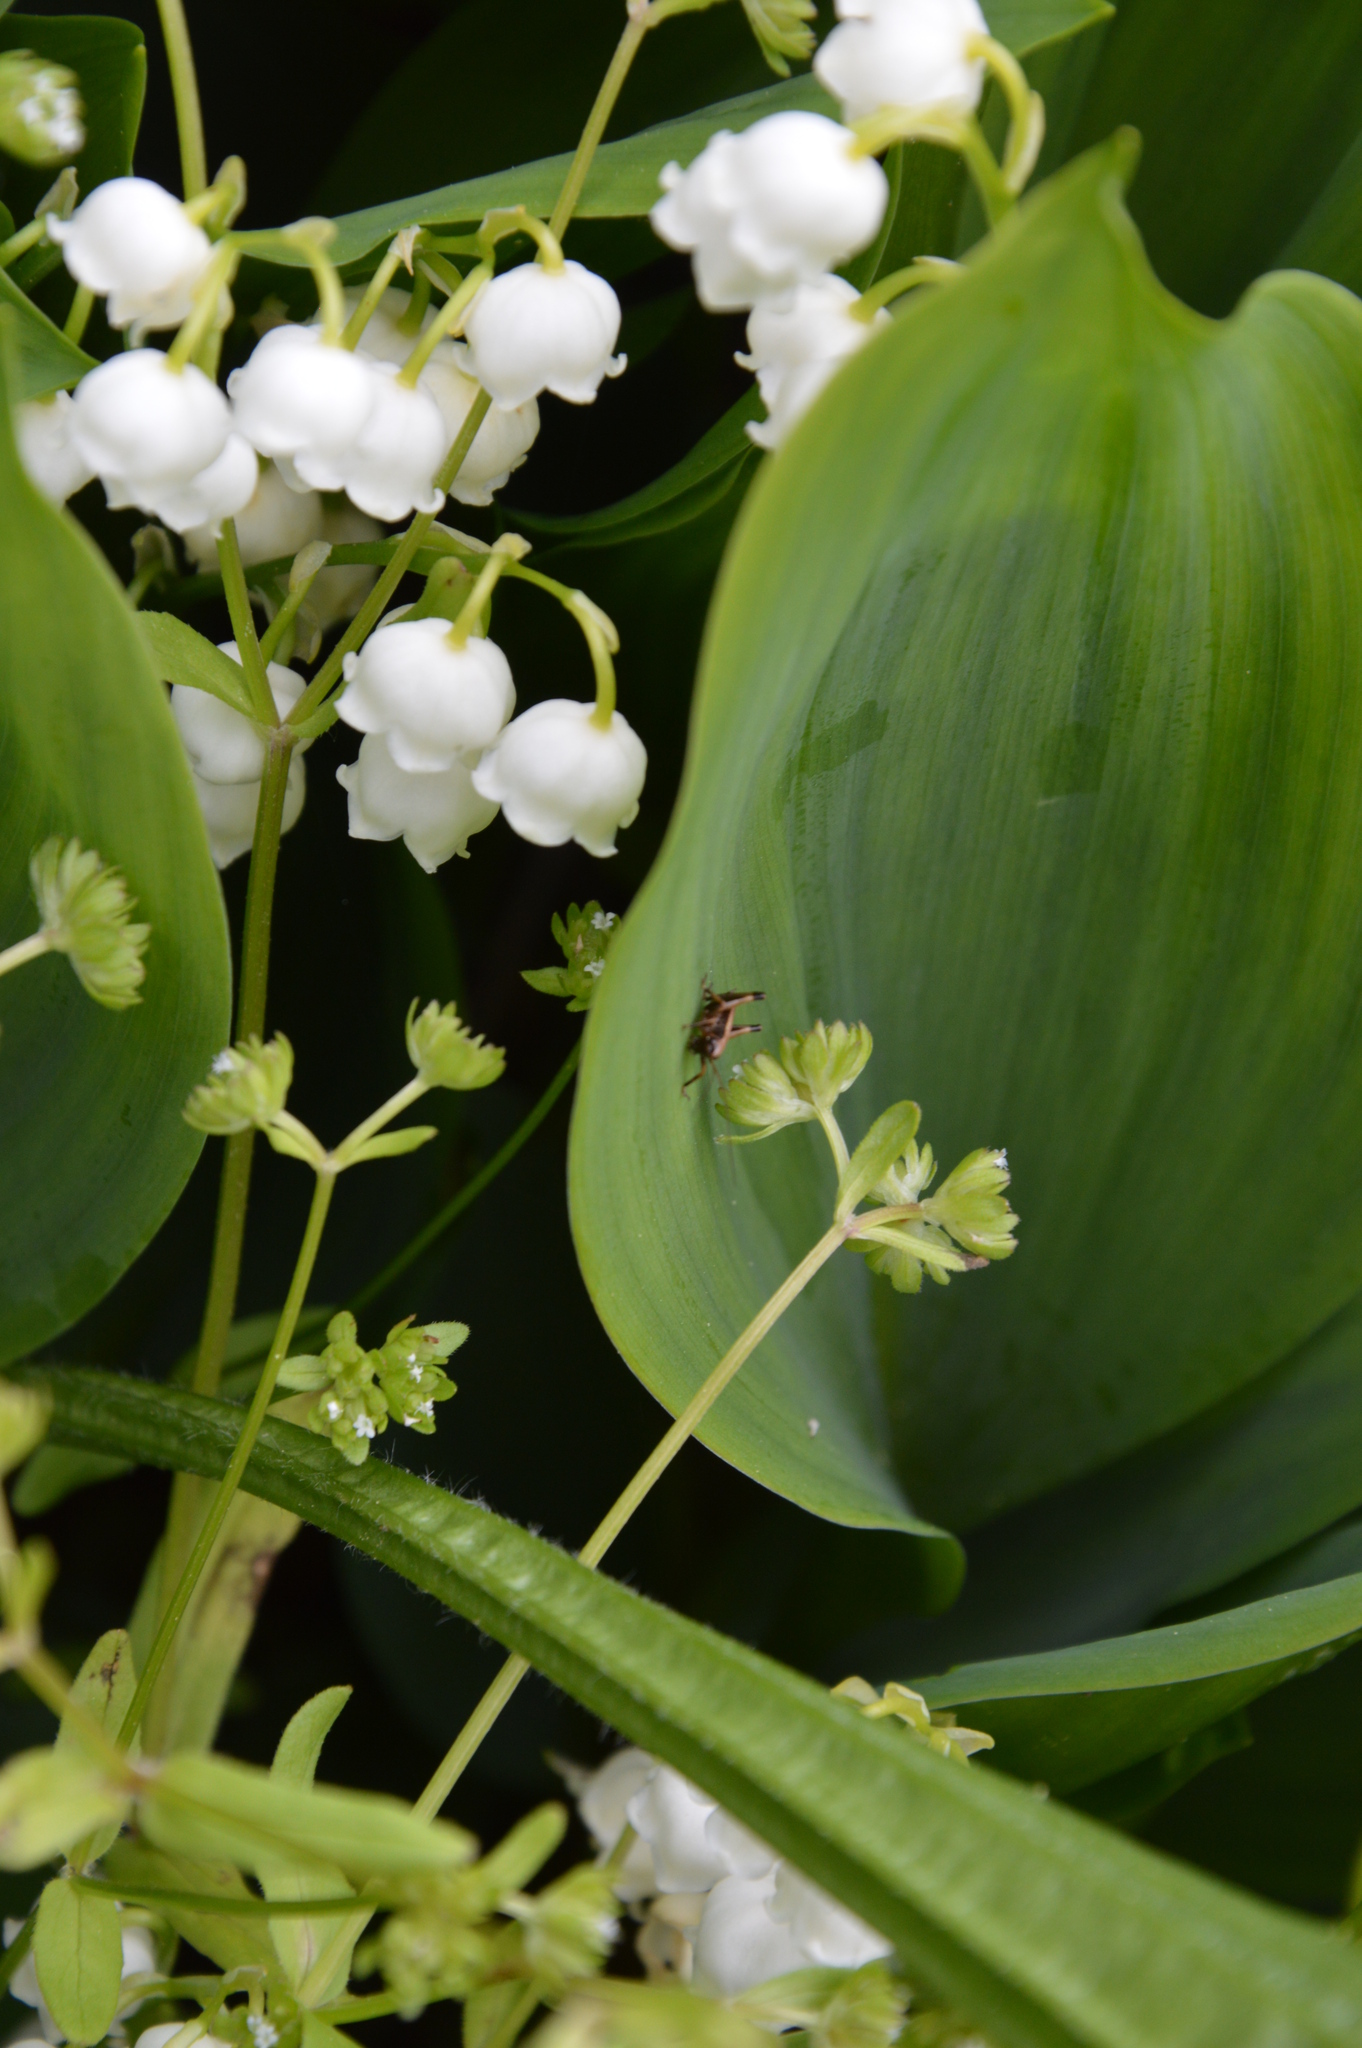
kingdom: Plantae
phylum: Tracheophyta
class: Liliopsida
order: Asparagales
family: Asparagaceae
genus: Convallaria
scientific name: Convallaria majalis
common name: Lily-of-the-valley
